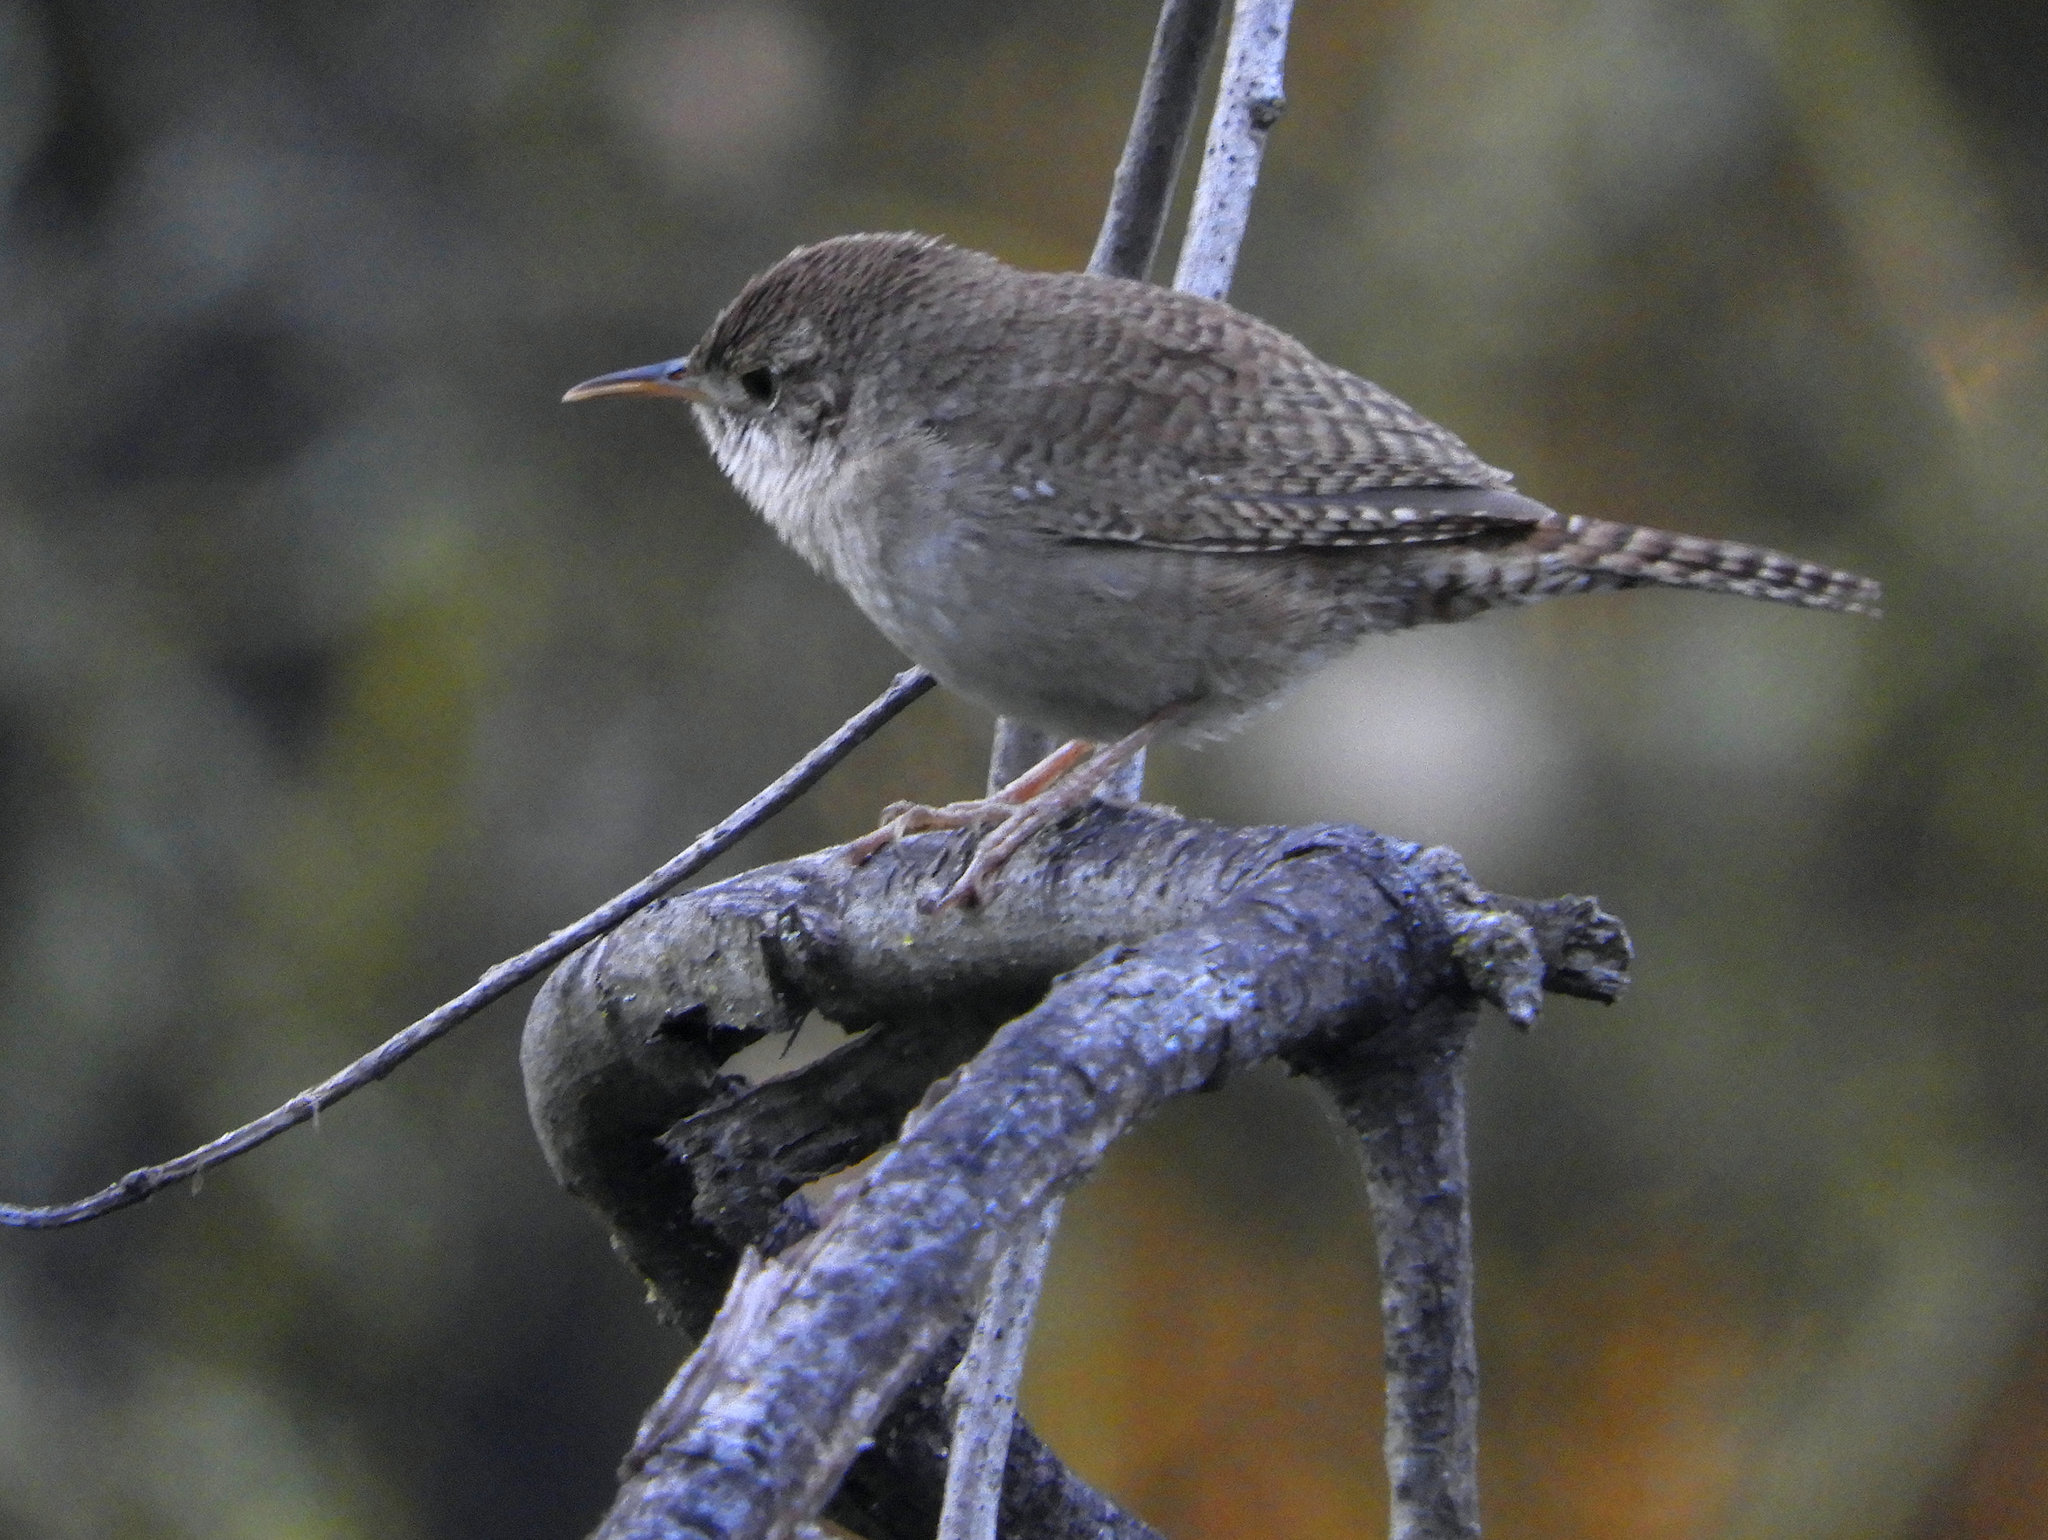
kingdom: Animalia
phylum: Chordata
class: Aves
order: Passeriformes
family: Troglodytidae
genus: Troglodytes
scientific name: Troglodytes aedon
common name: House wren
